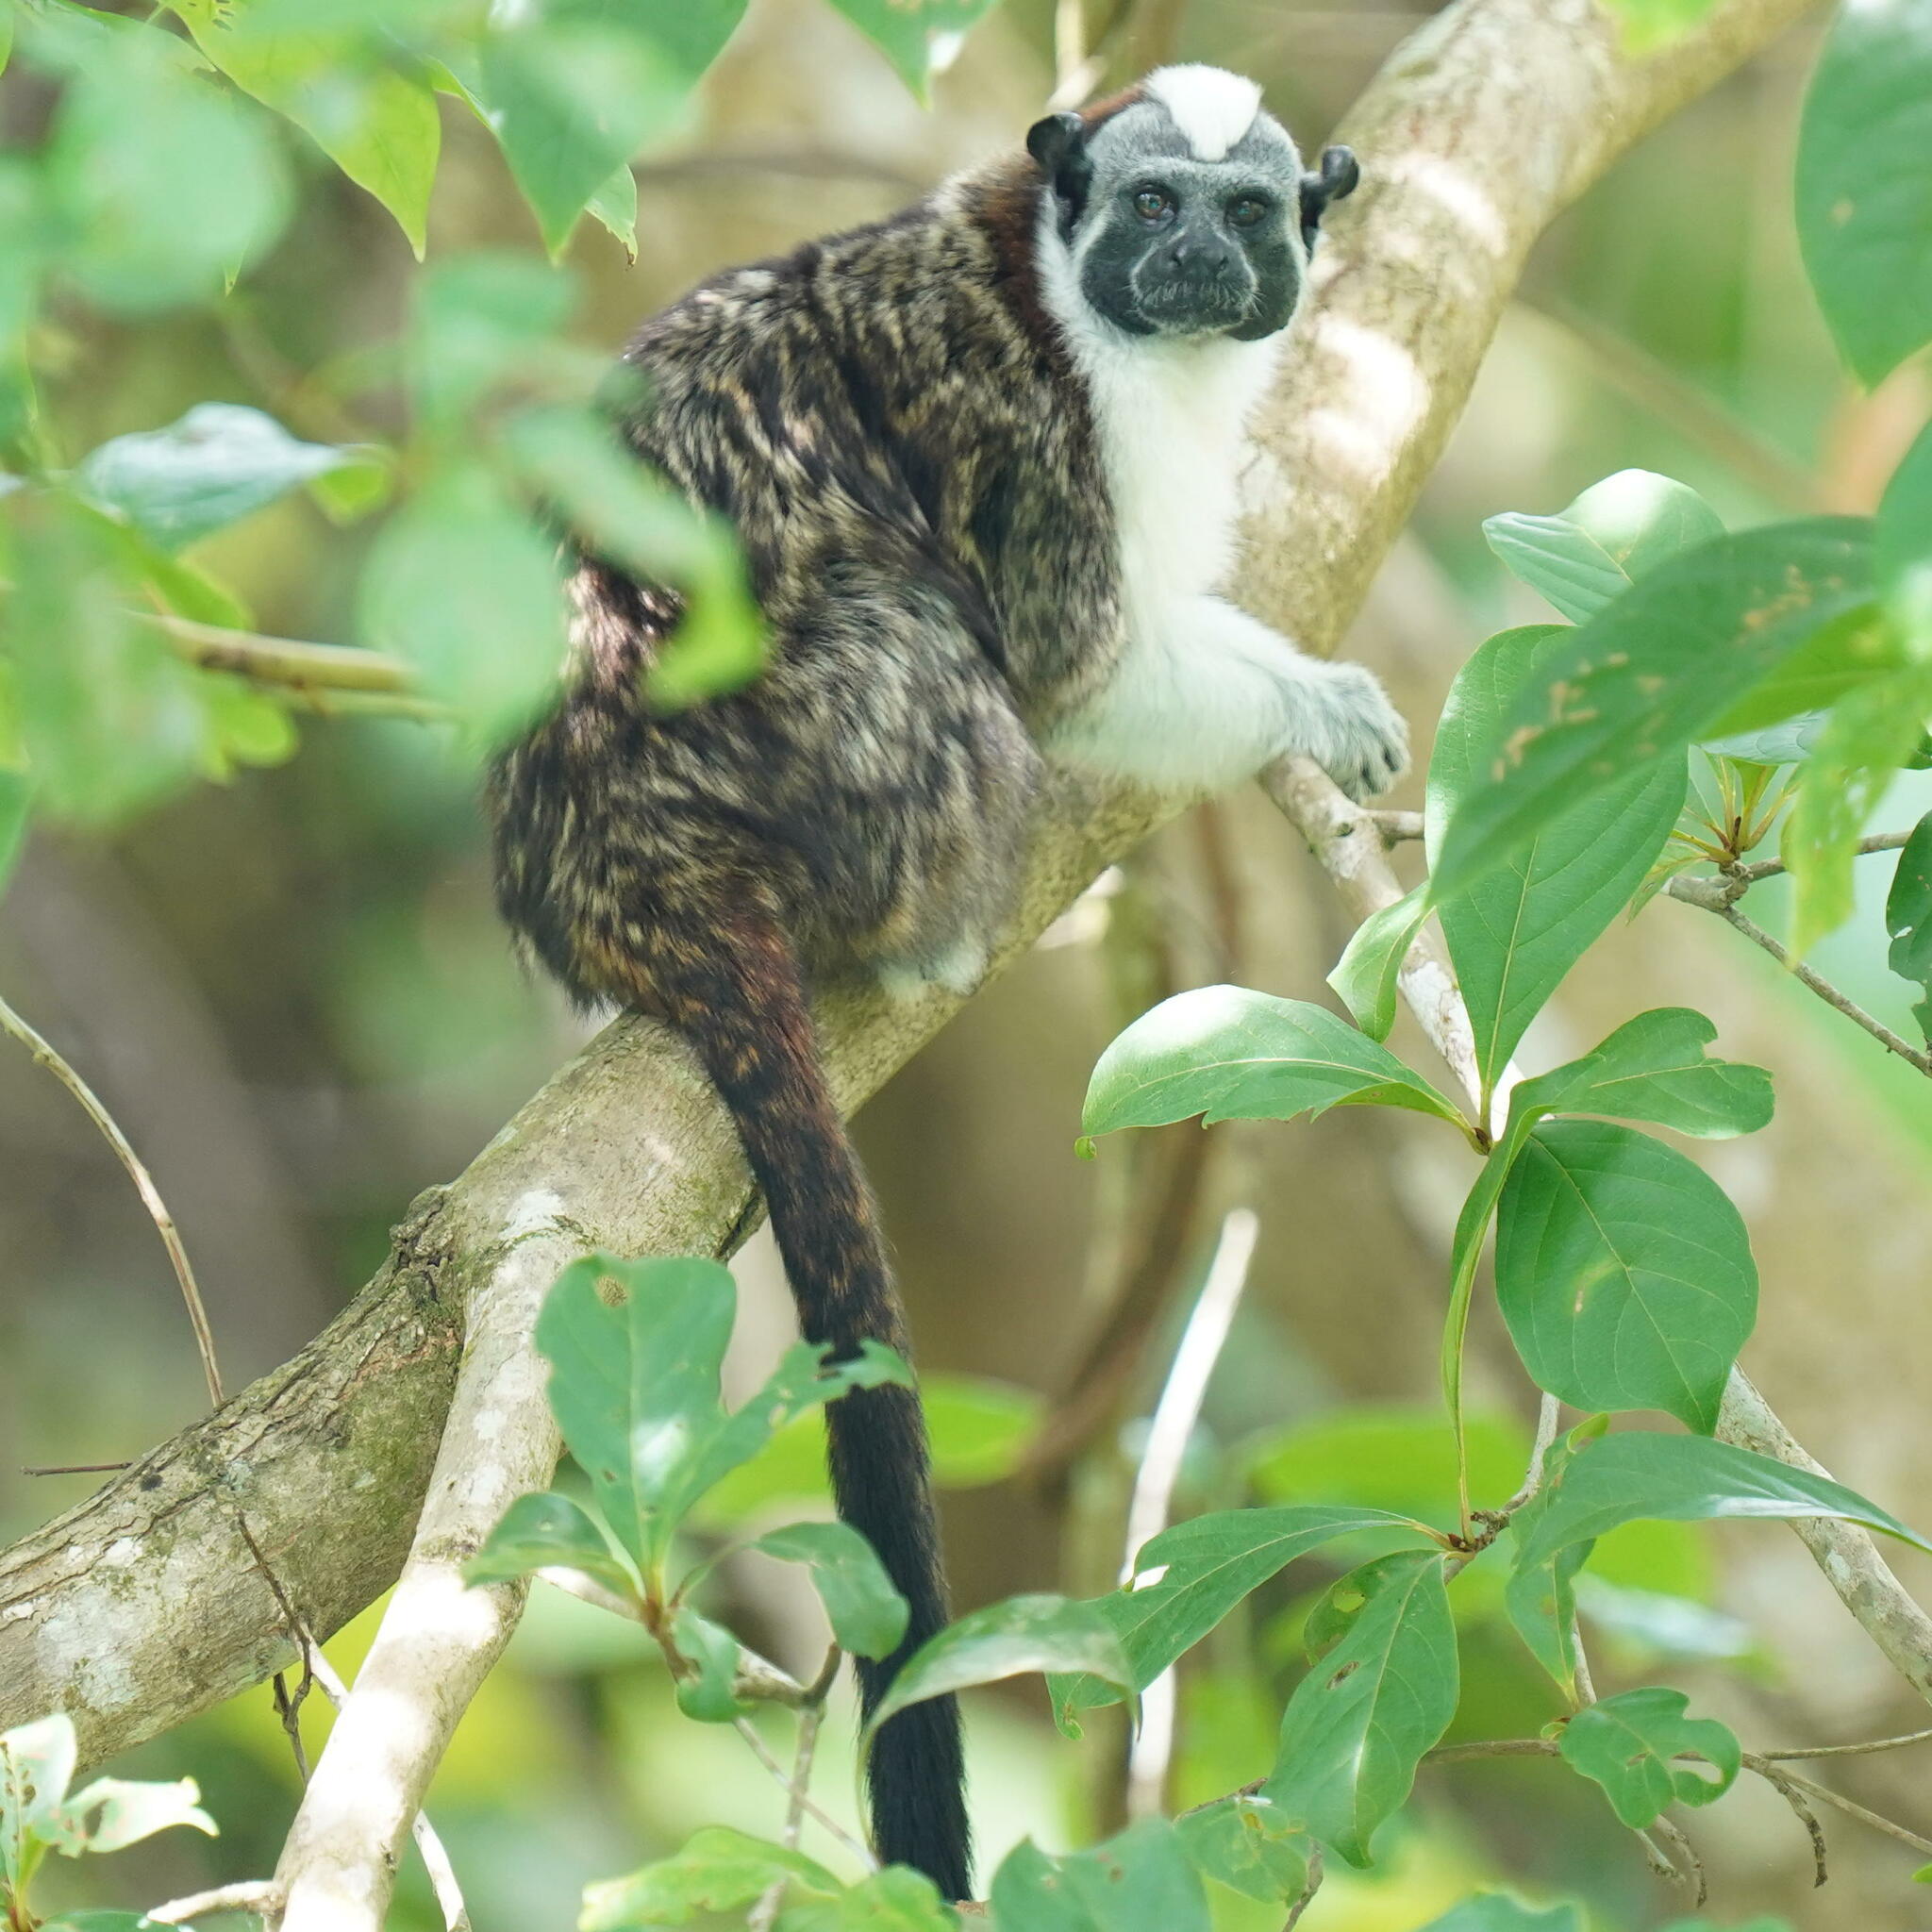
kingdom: Animalia
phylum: Chordata
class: Mammalia
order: Primates
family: Callitrichidae
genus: Saguinus
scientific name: Saguinus geoffroyi
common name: Geoffroy s tamarin
